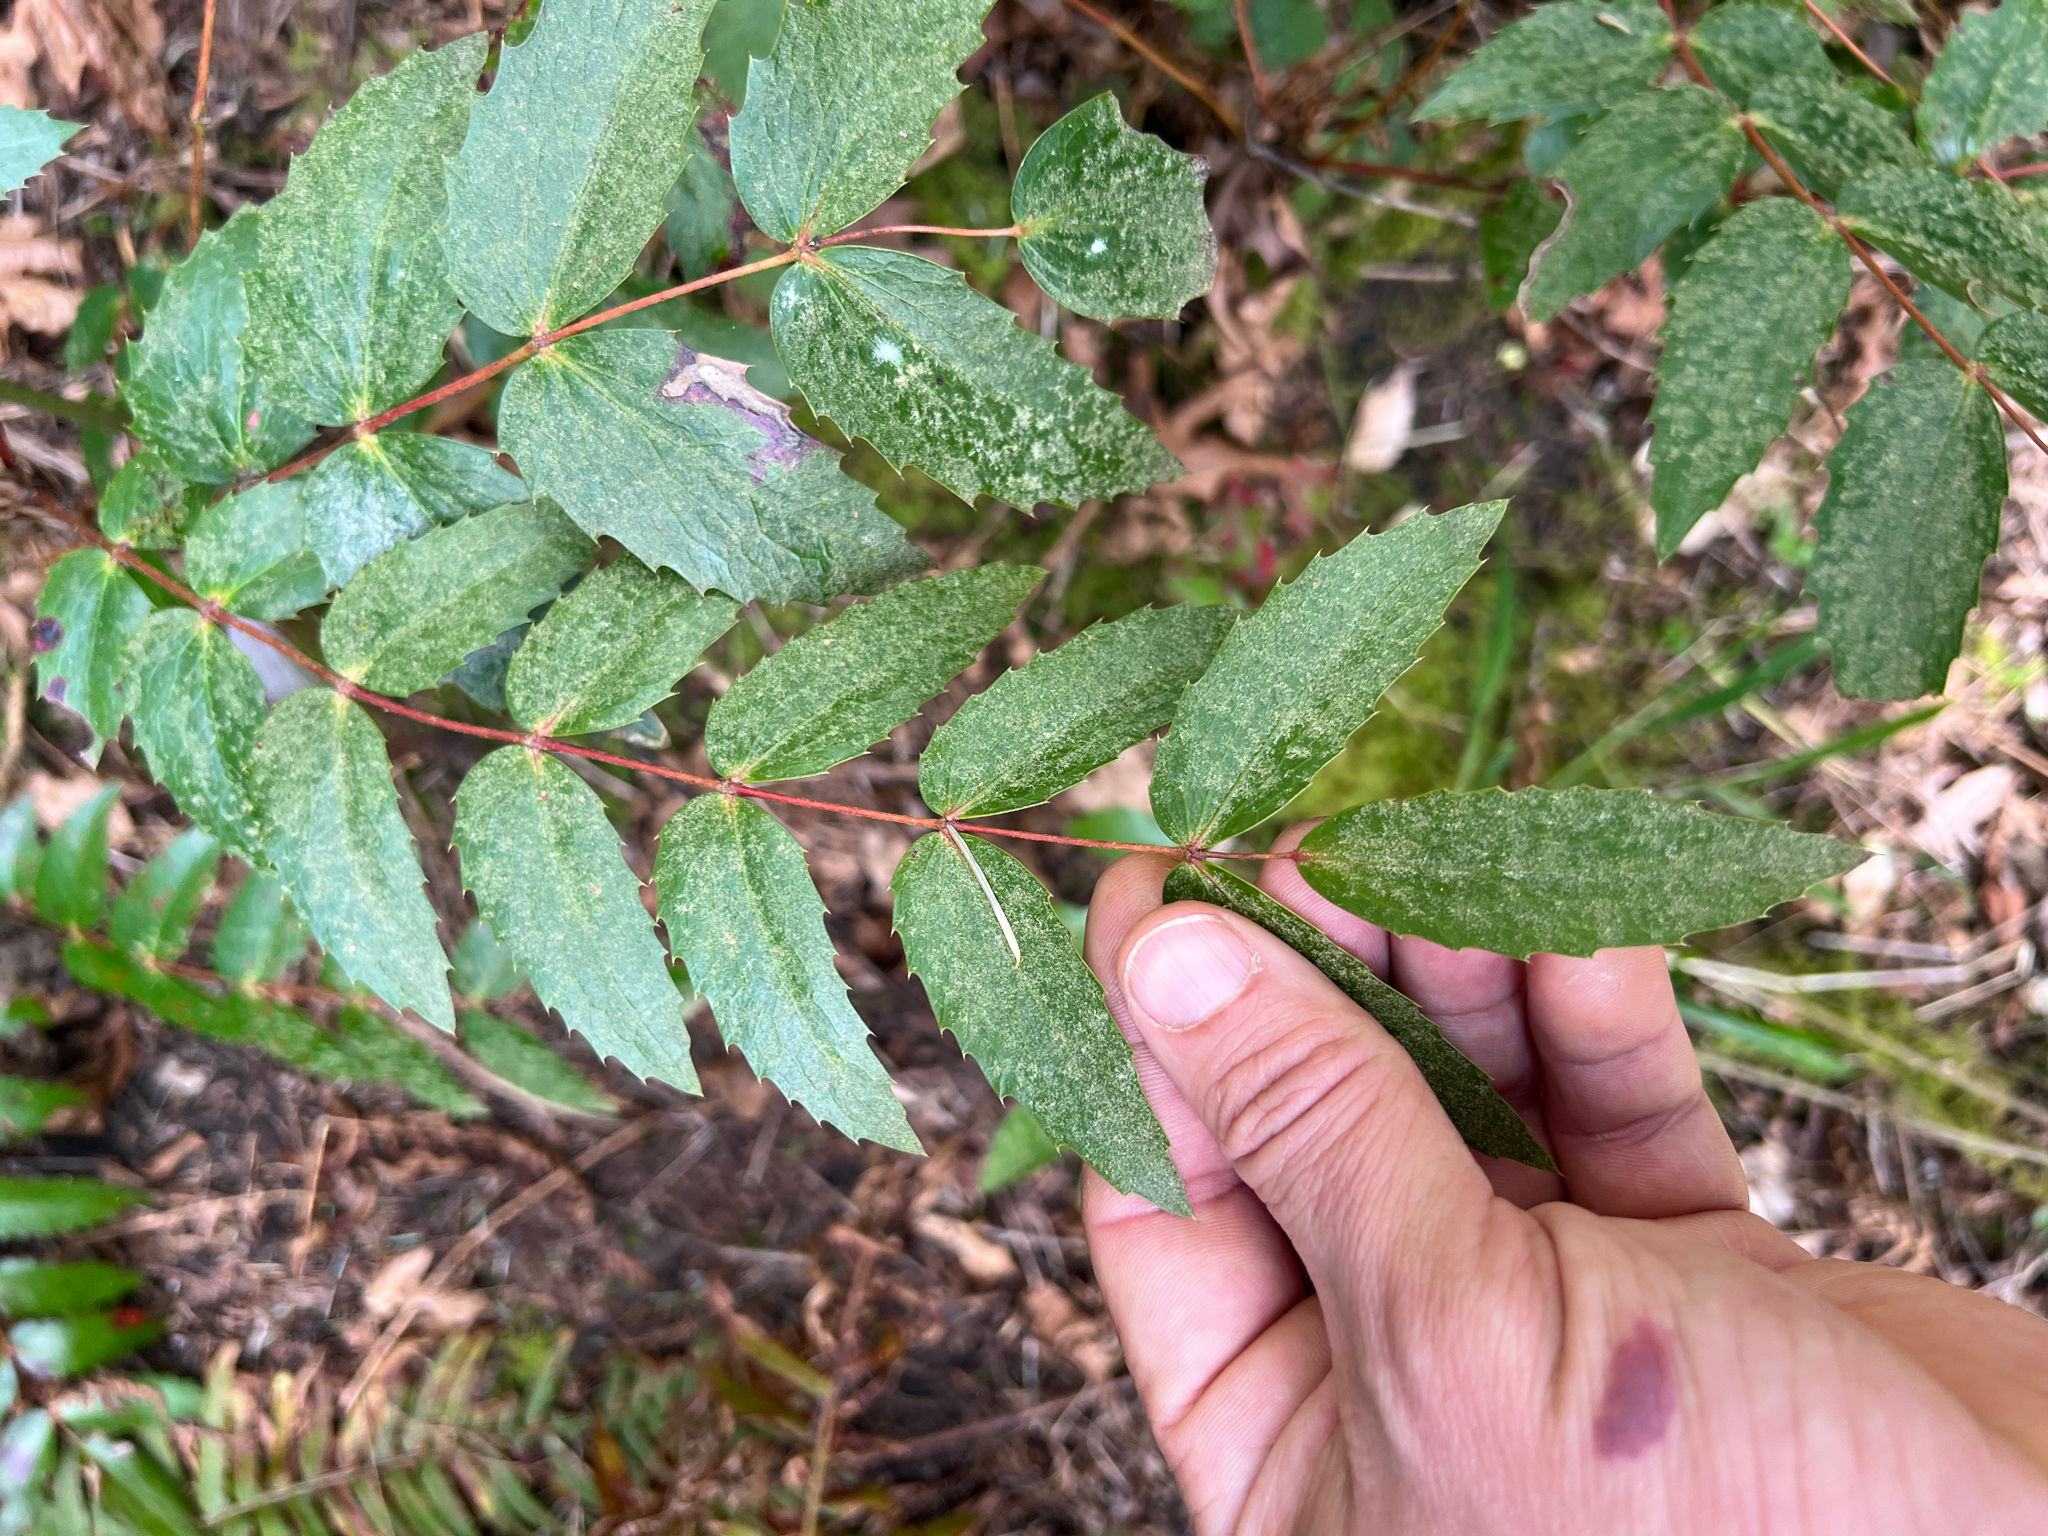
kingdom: Plantae
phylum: Tracheophyta
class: Magnoliopsida
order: Ranunculales
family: Berberidaceae
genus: Mahonia
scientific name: Mahonia nervosa
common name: Cascade oregon-grape
